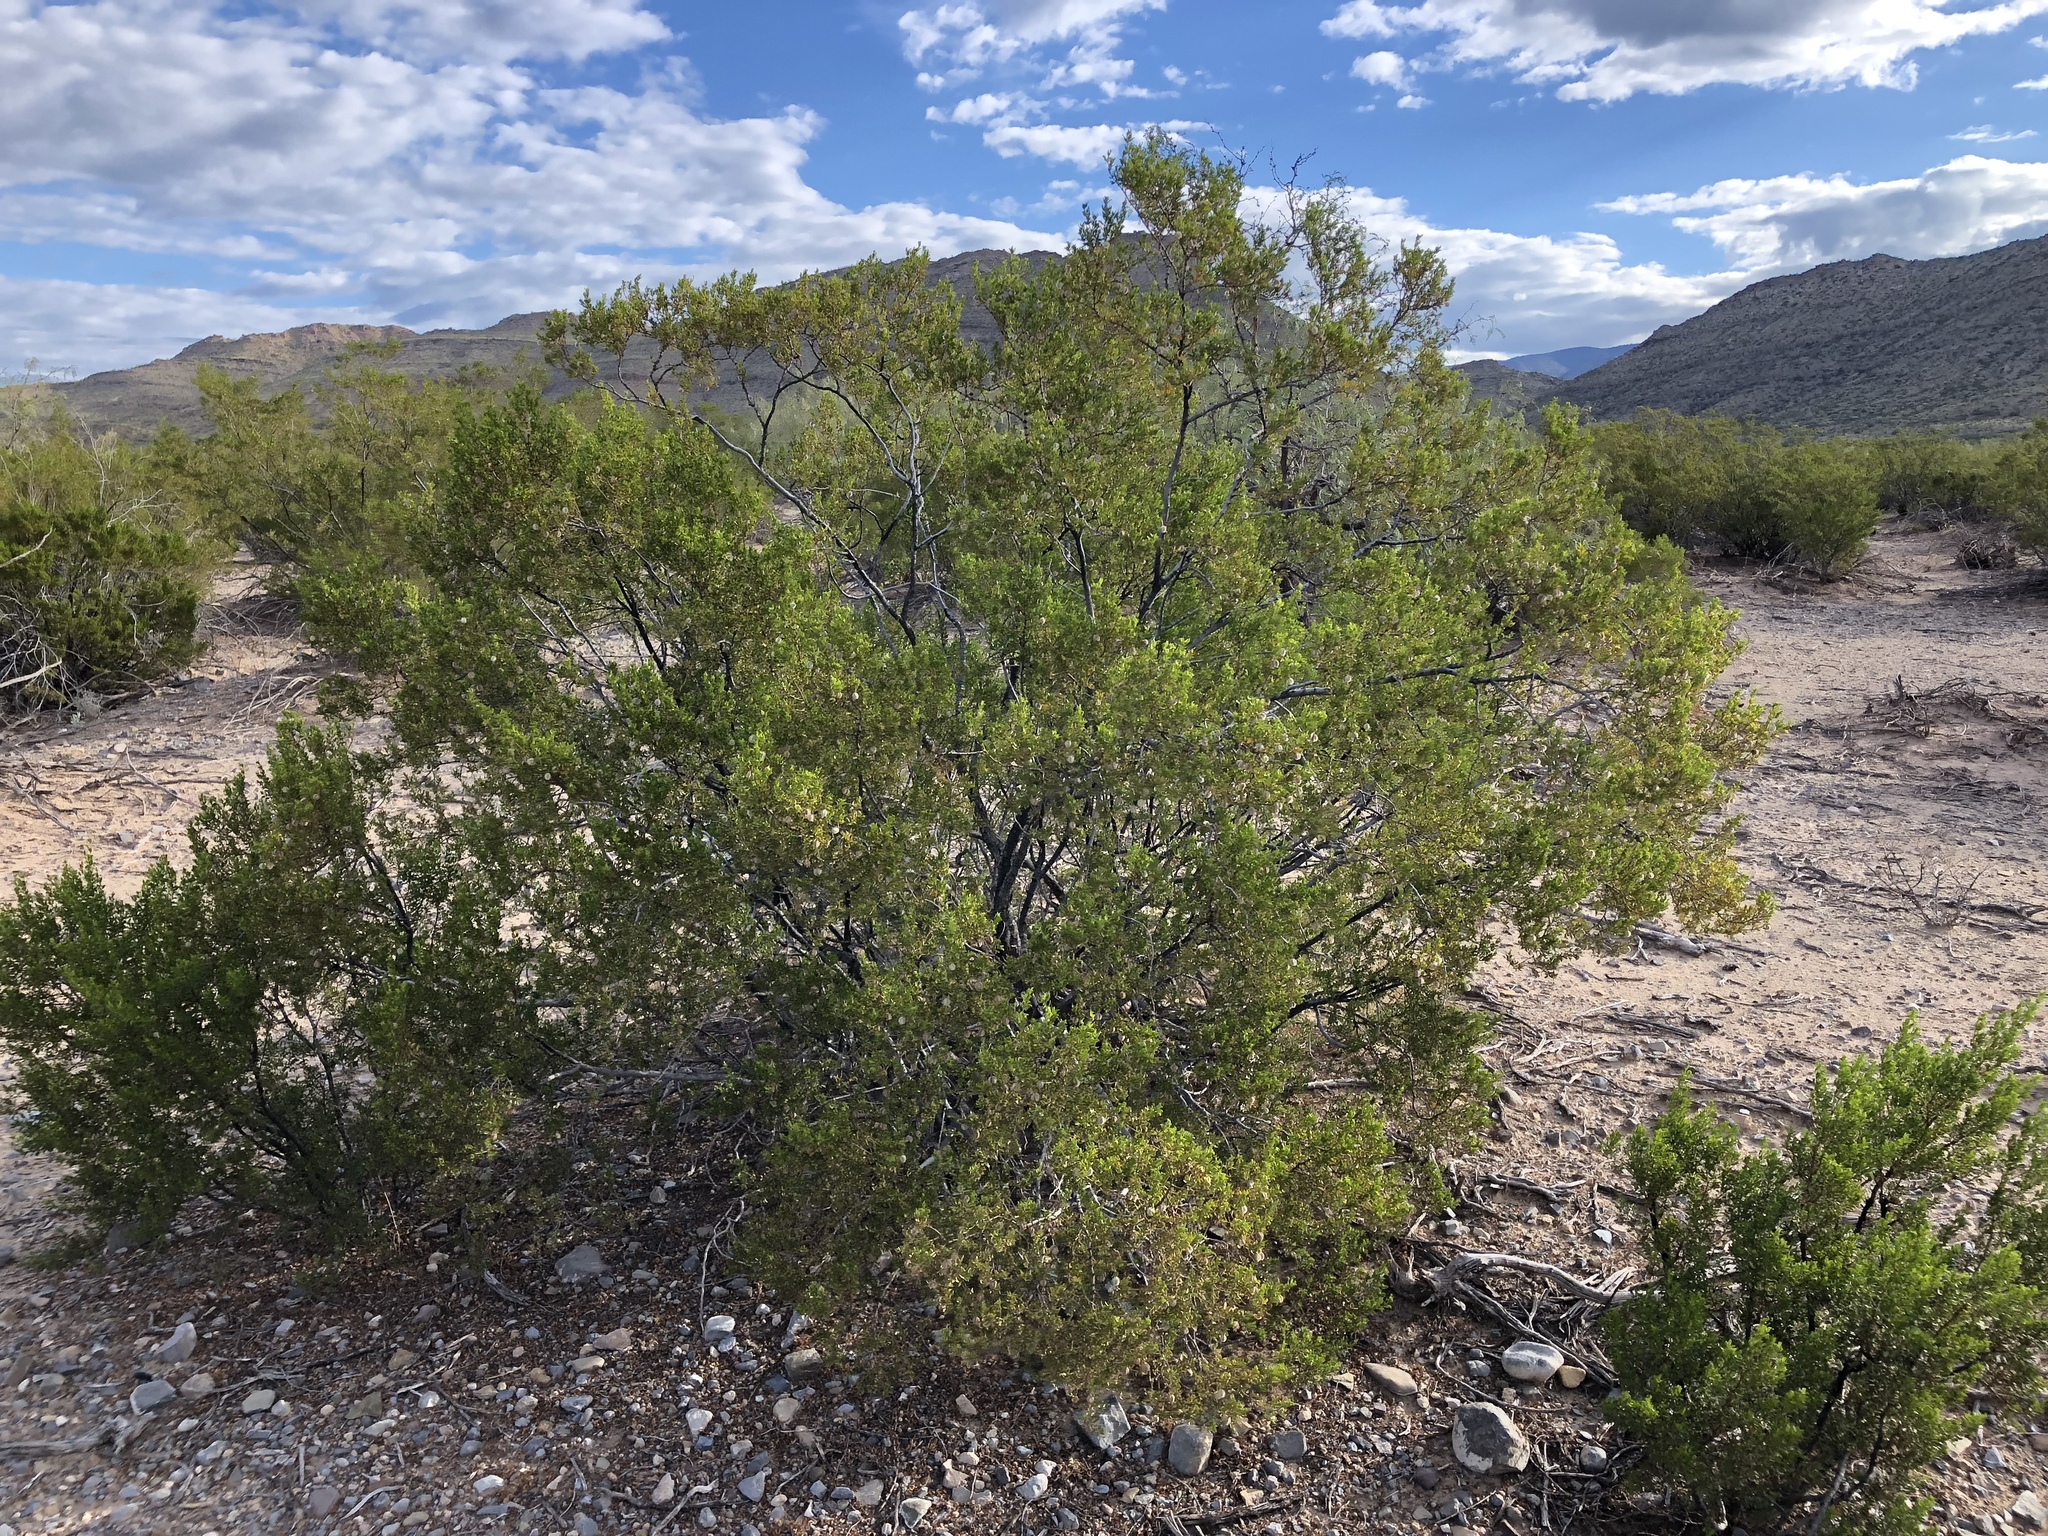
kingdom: Plantae
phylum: Tracheophyta
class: Magnoliopsida
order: Zygophyllales
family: Zygophyllaceae
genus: Larrea
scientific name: Larrea tridentata
